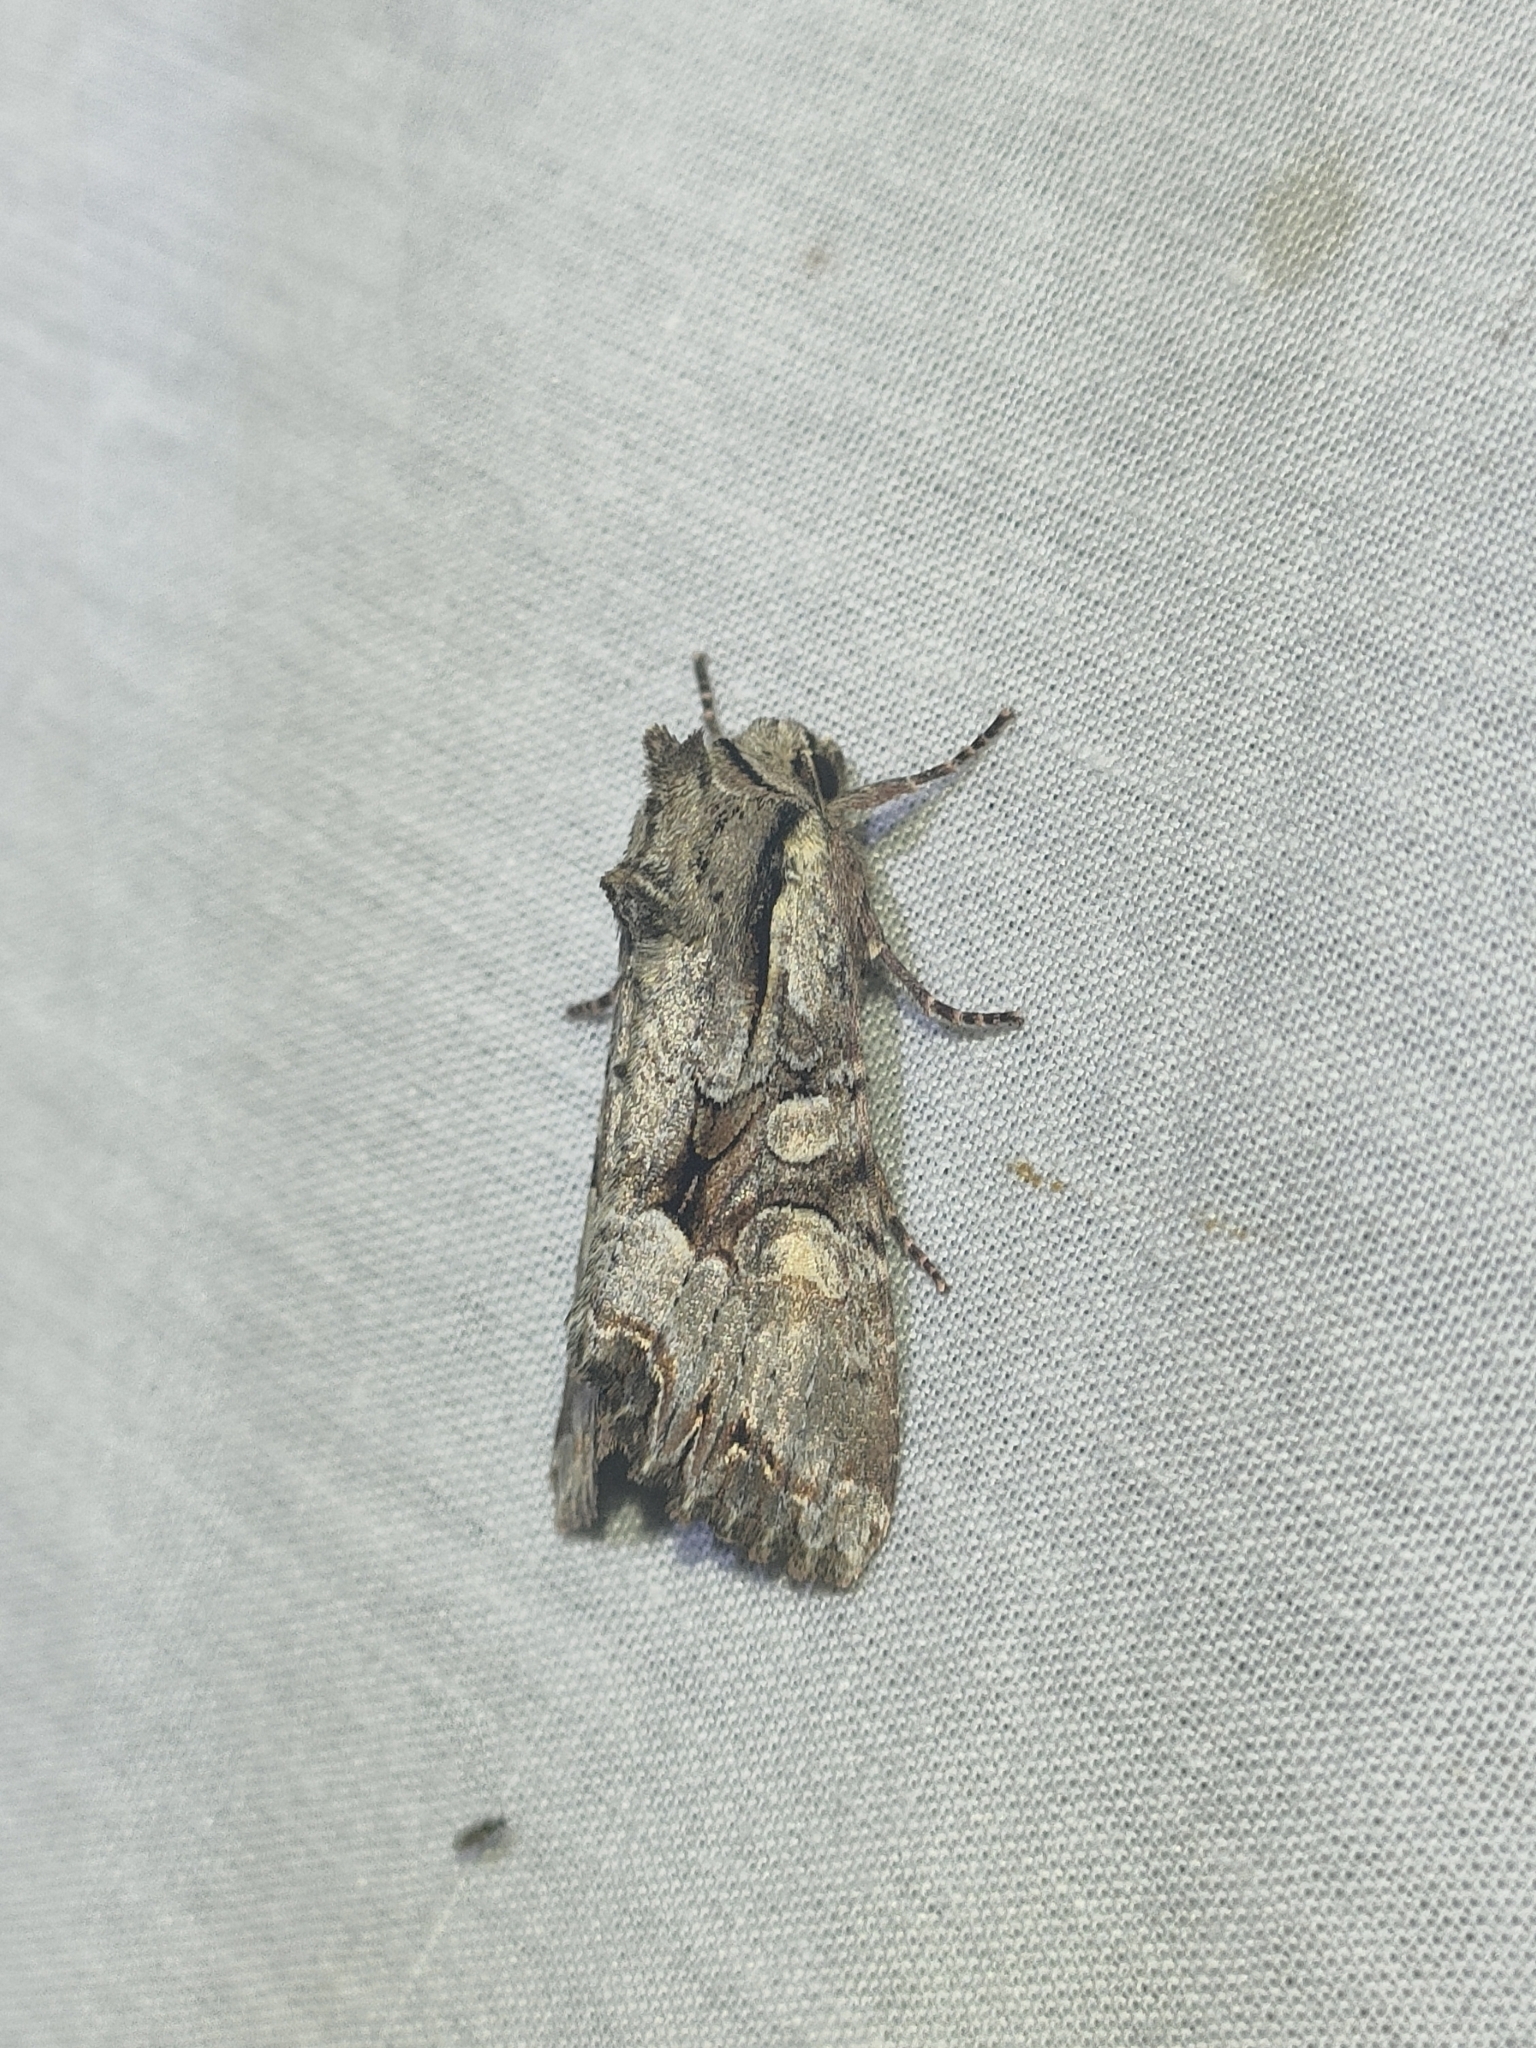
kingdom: Animalia
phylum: Arthropoda
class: Insecta
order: Lepidoptera
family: Noctuidae
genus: Lacanobia
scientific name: Lacanobia w-latinum
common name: Light brocade
